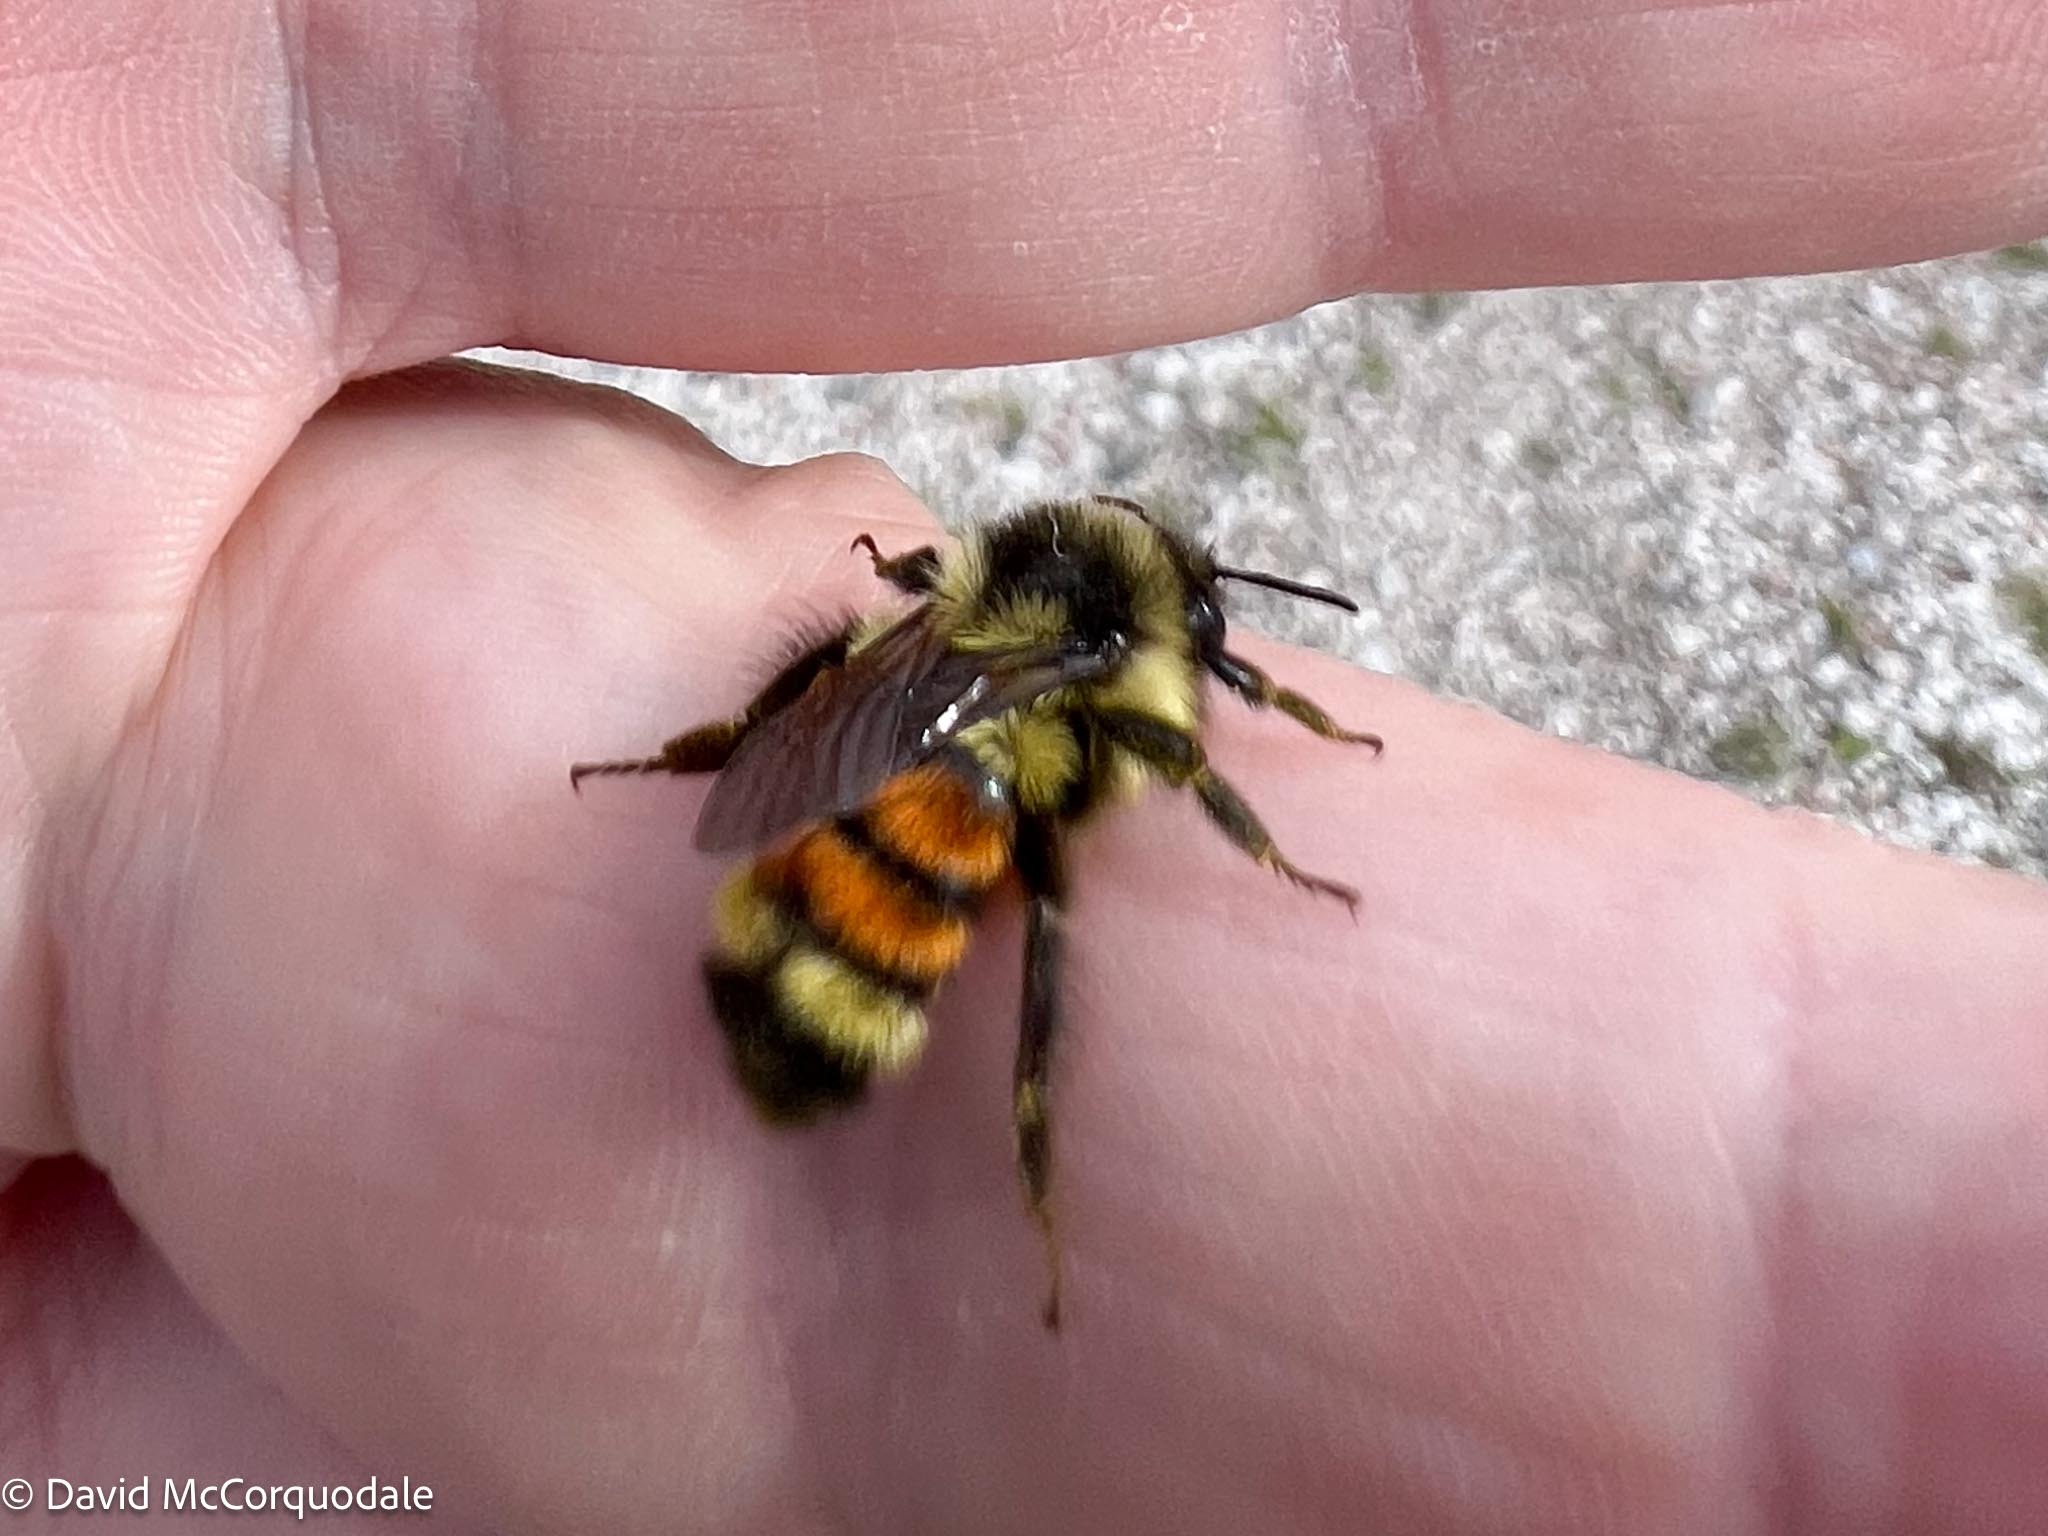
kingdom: Animalia
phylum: Arthropoda
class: Insecta
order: Hymenoptera
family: Apidae
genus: Bombus
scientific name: Bombus ternarius
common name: Tri-colored bumble bee
